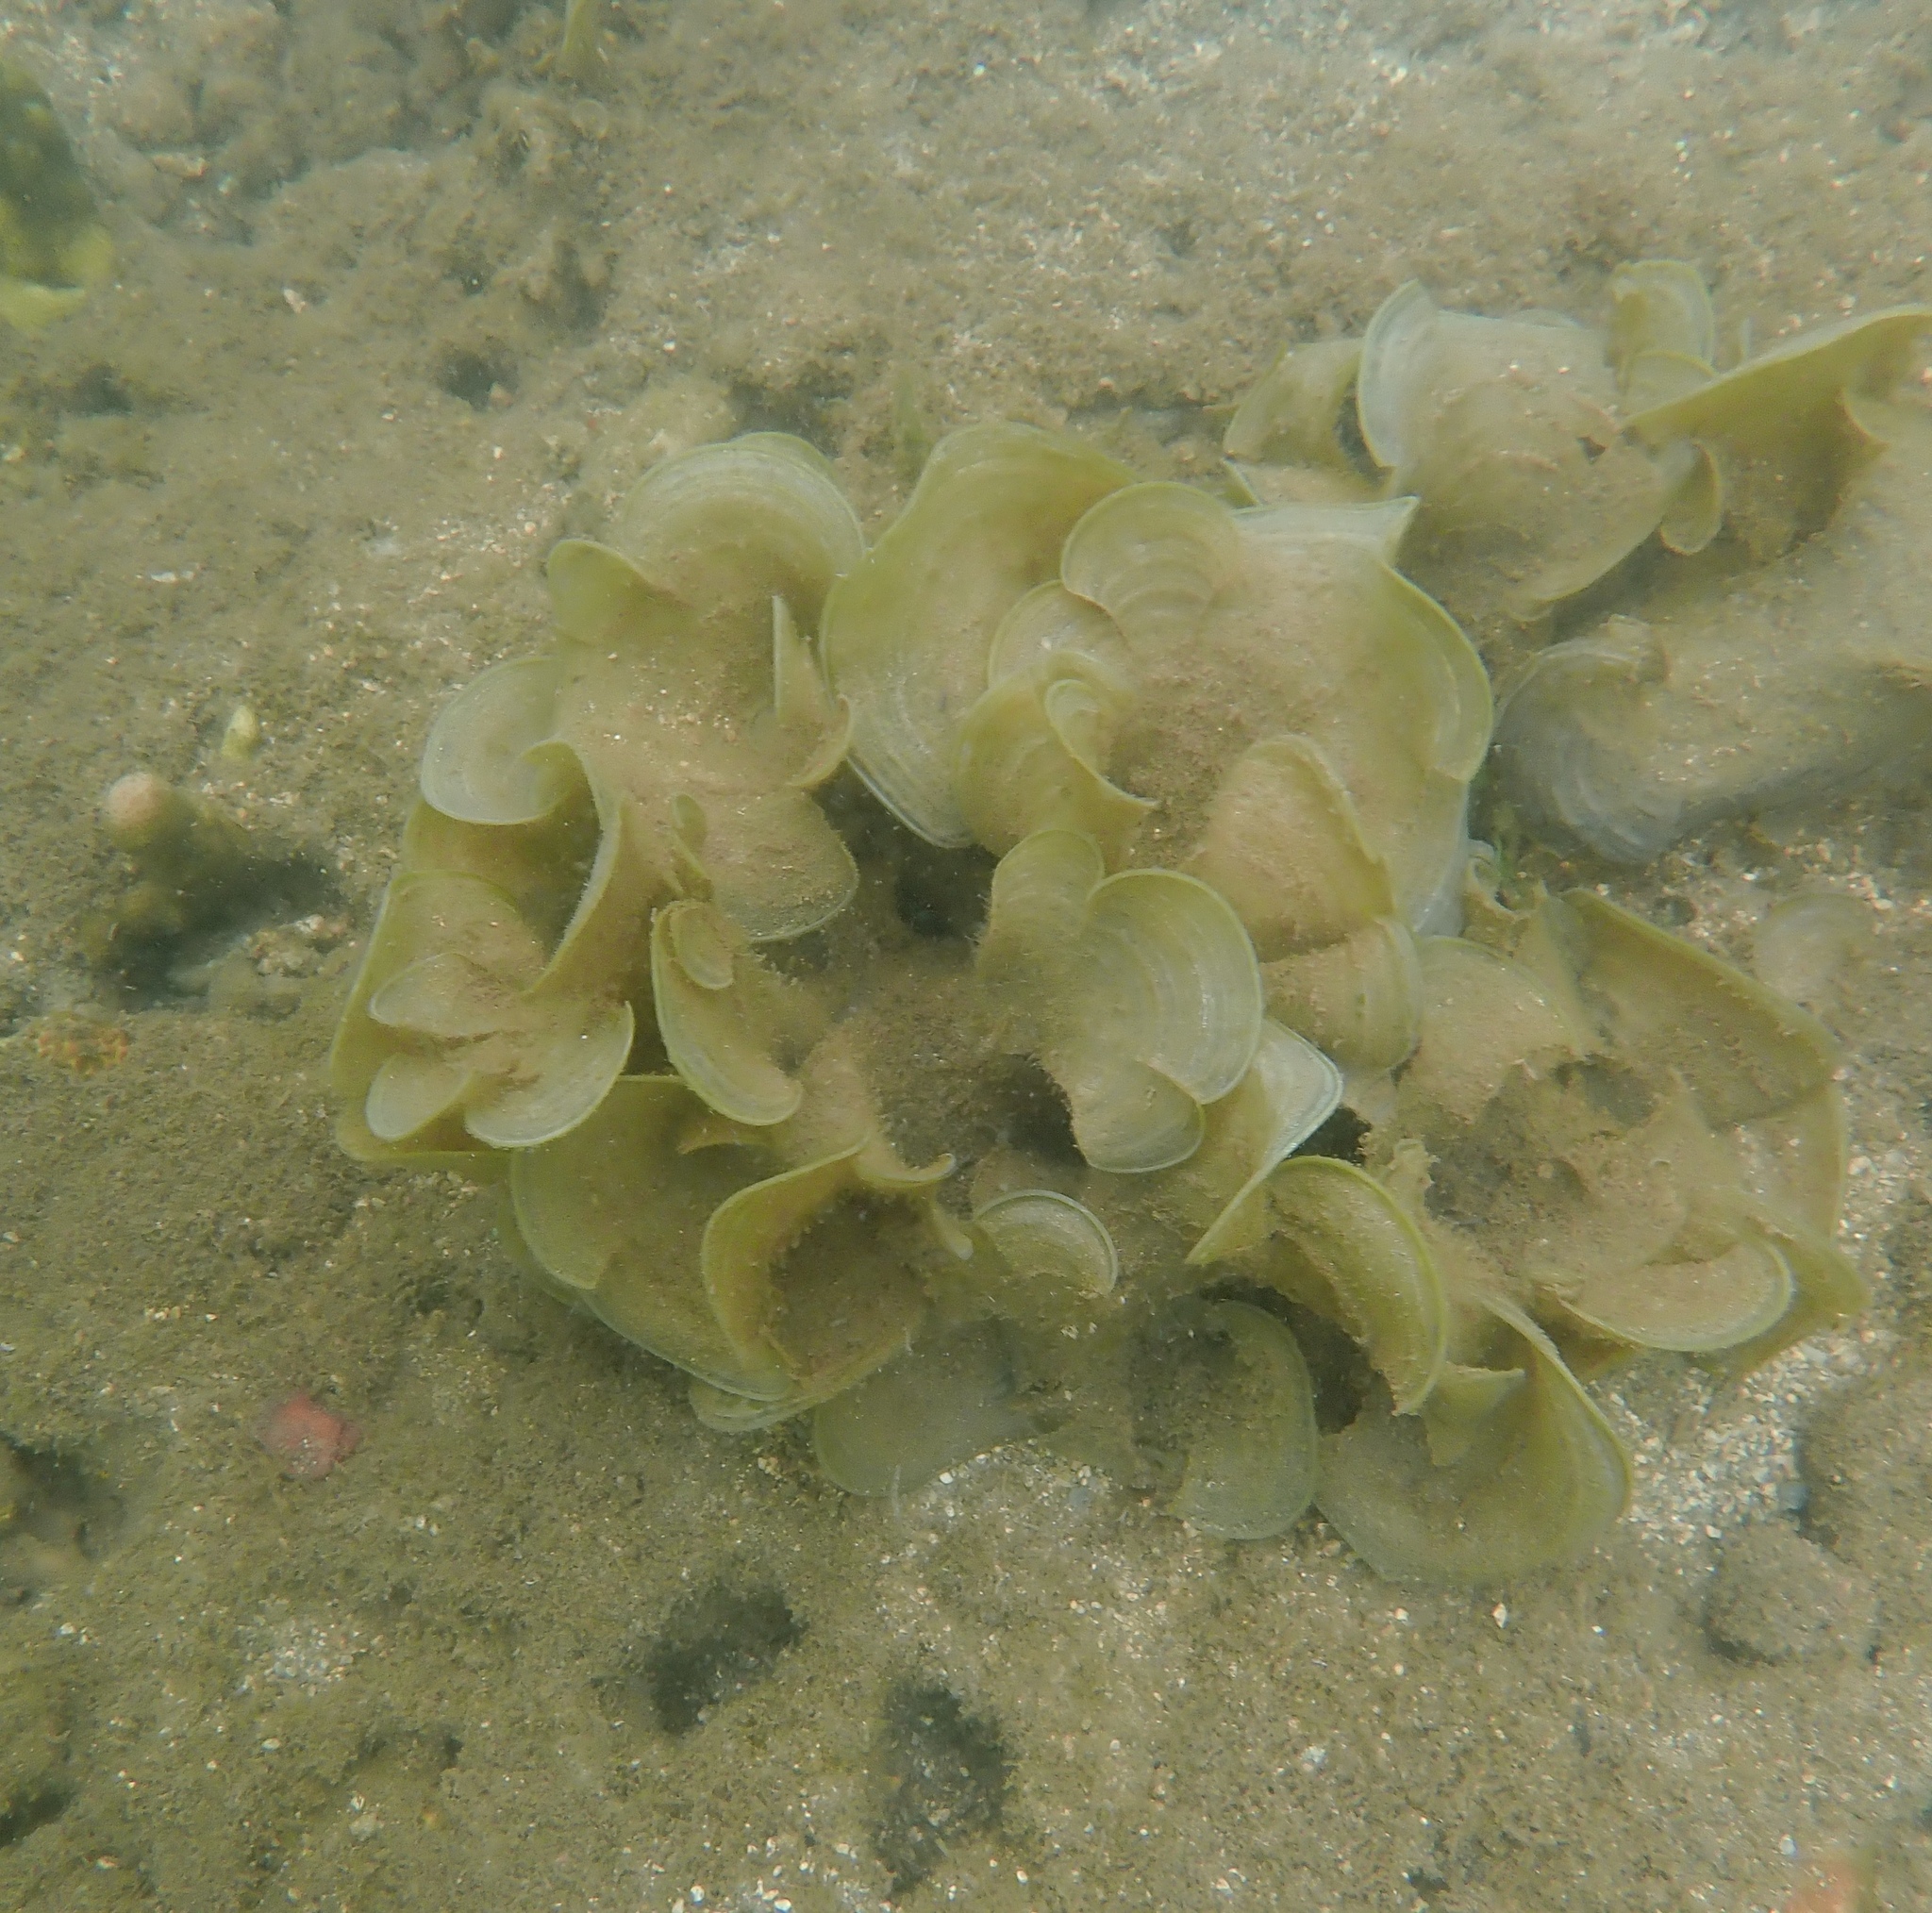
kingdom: Chromista
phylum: Ochrophyta
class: Phaeophyceae
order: Dictyotales
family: Dictyotaceae
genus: Padina
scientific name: Padina sanctae-crucis
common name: White scroll algae
